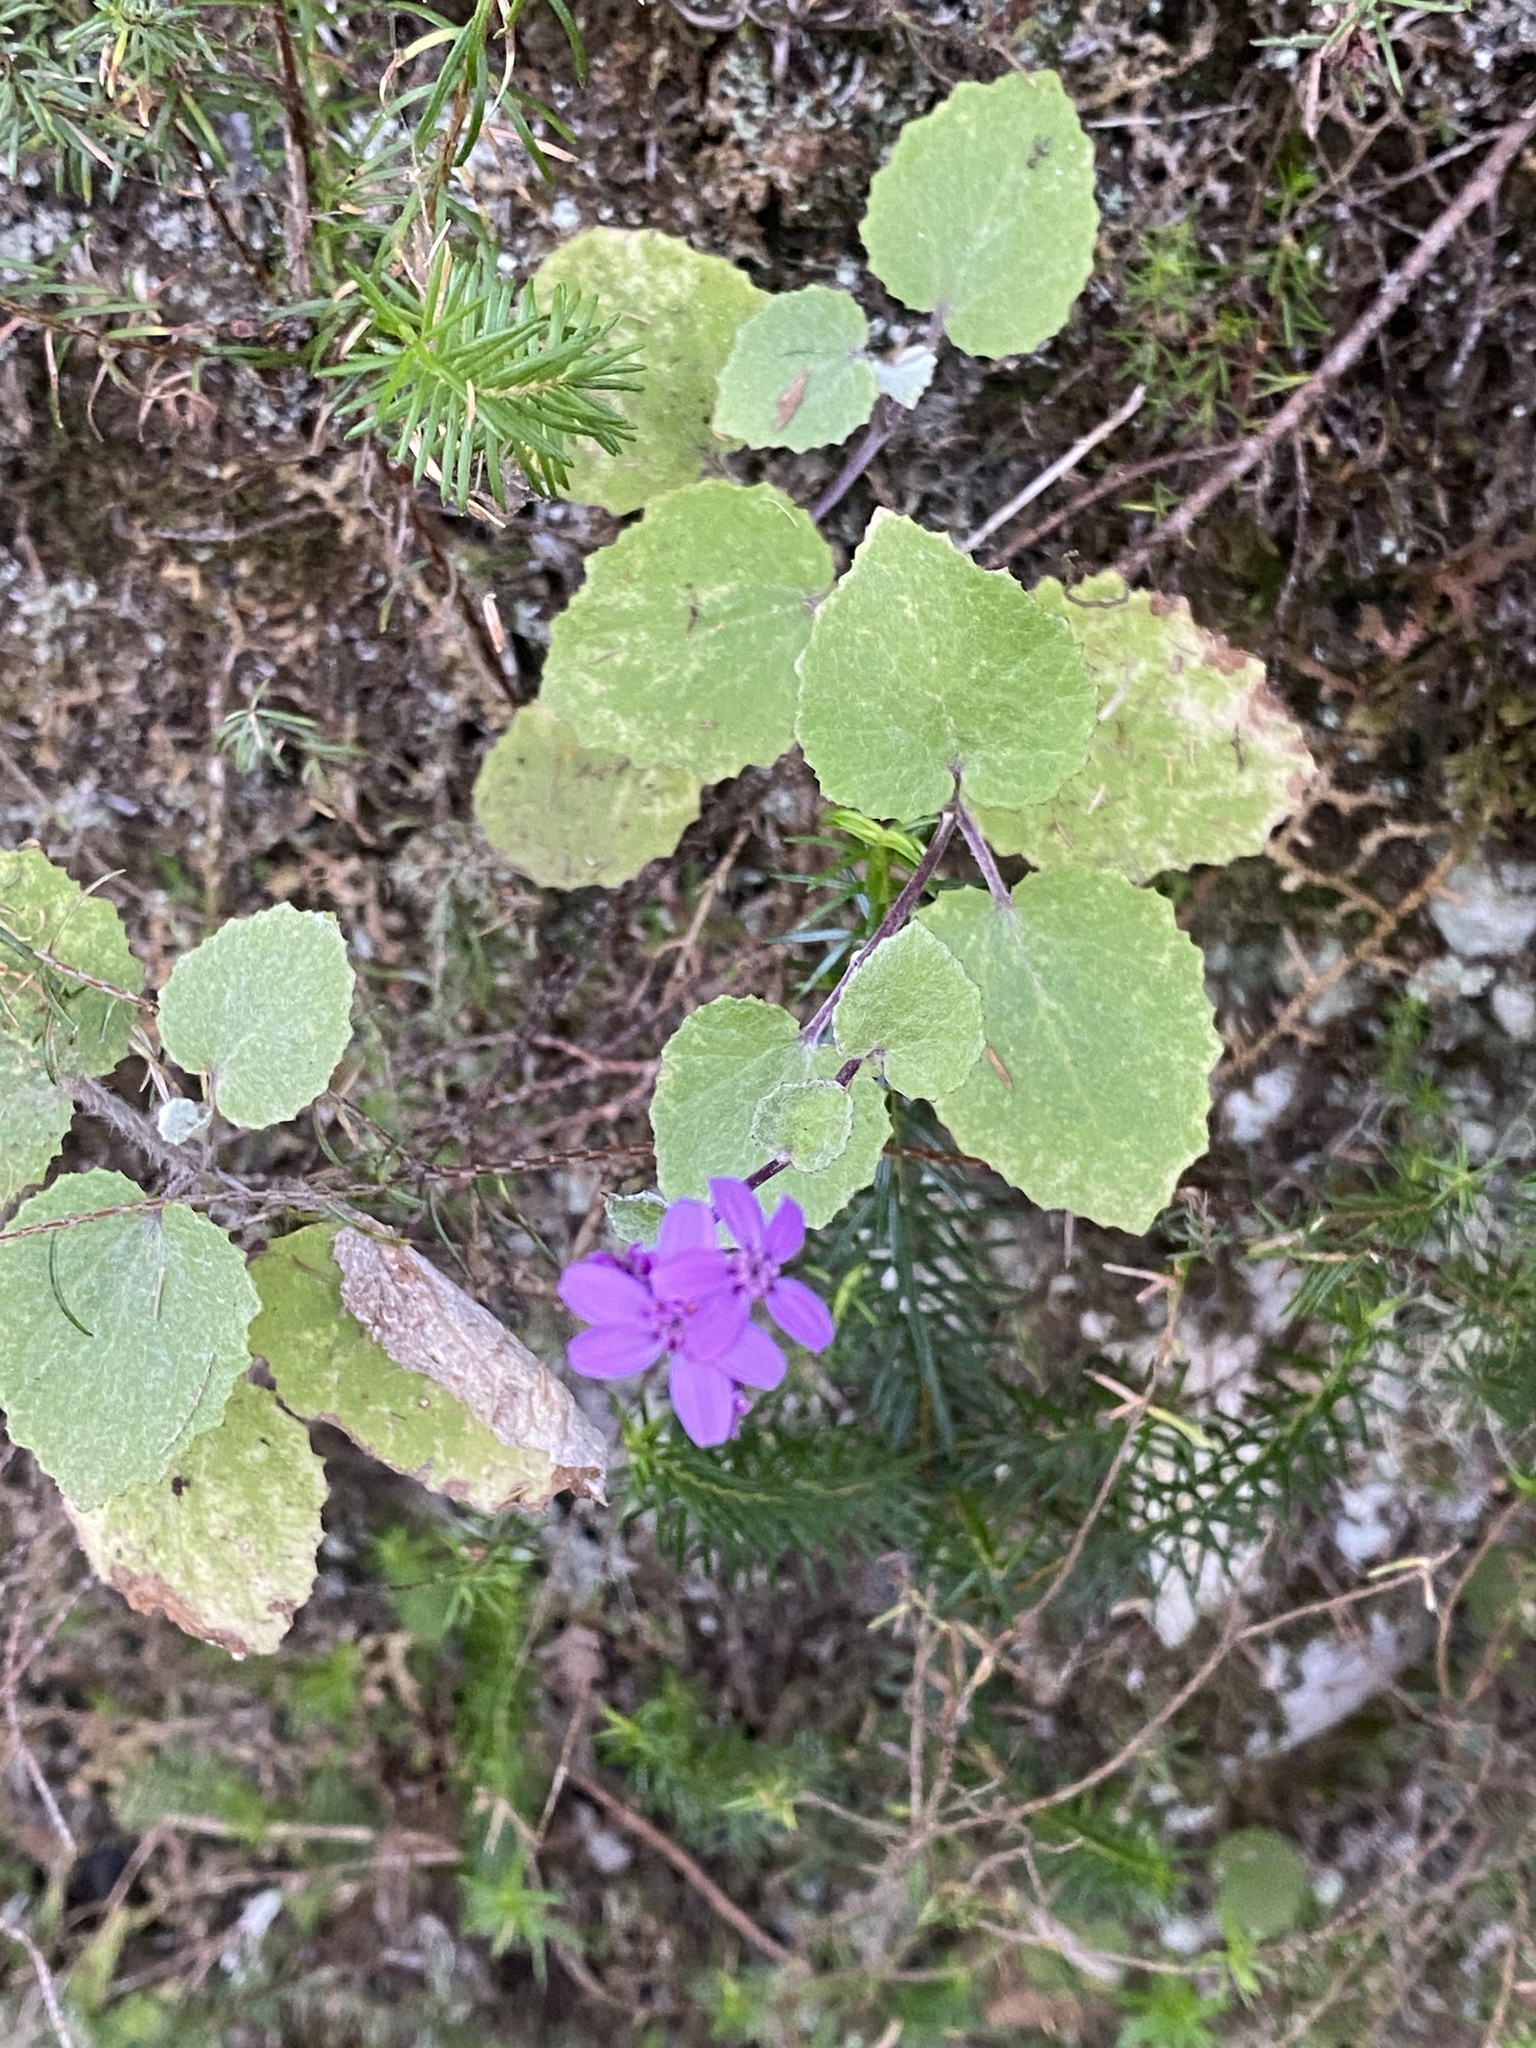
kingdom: Plantae
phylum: Tracheophyta
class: Magnoliopsida
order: Asterales
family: Asteraceae
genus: Pericallis
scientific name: Pericallis aurita
